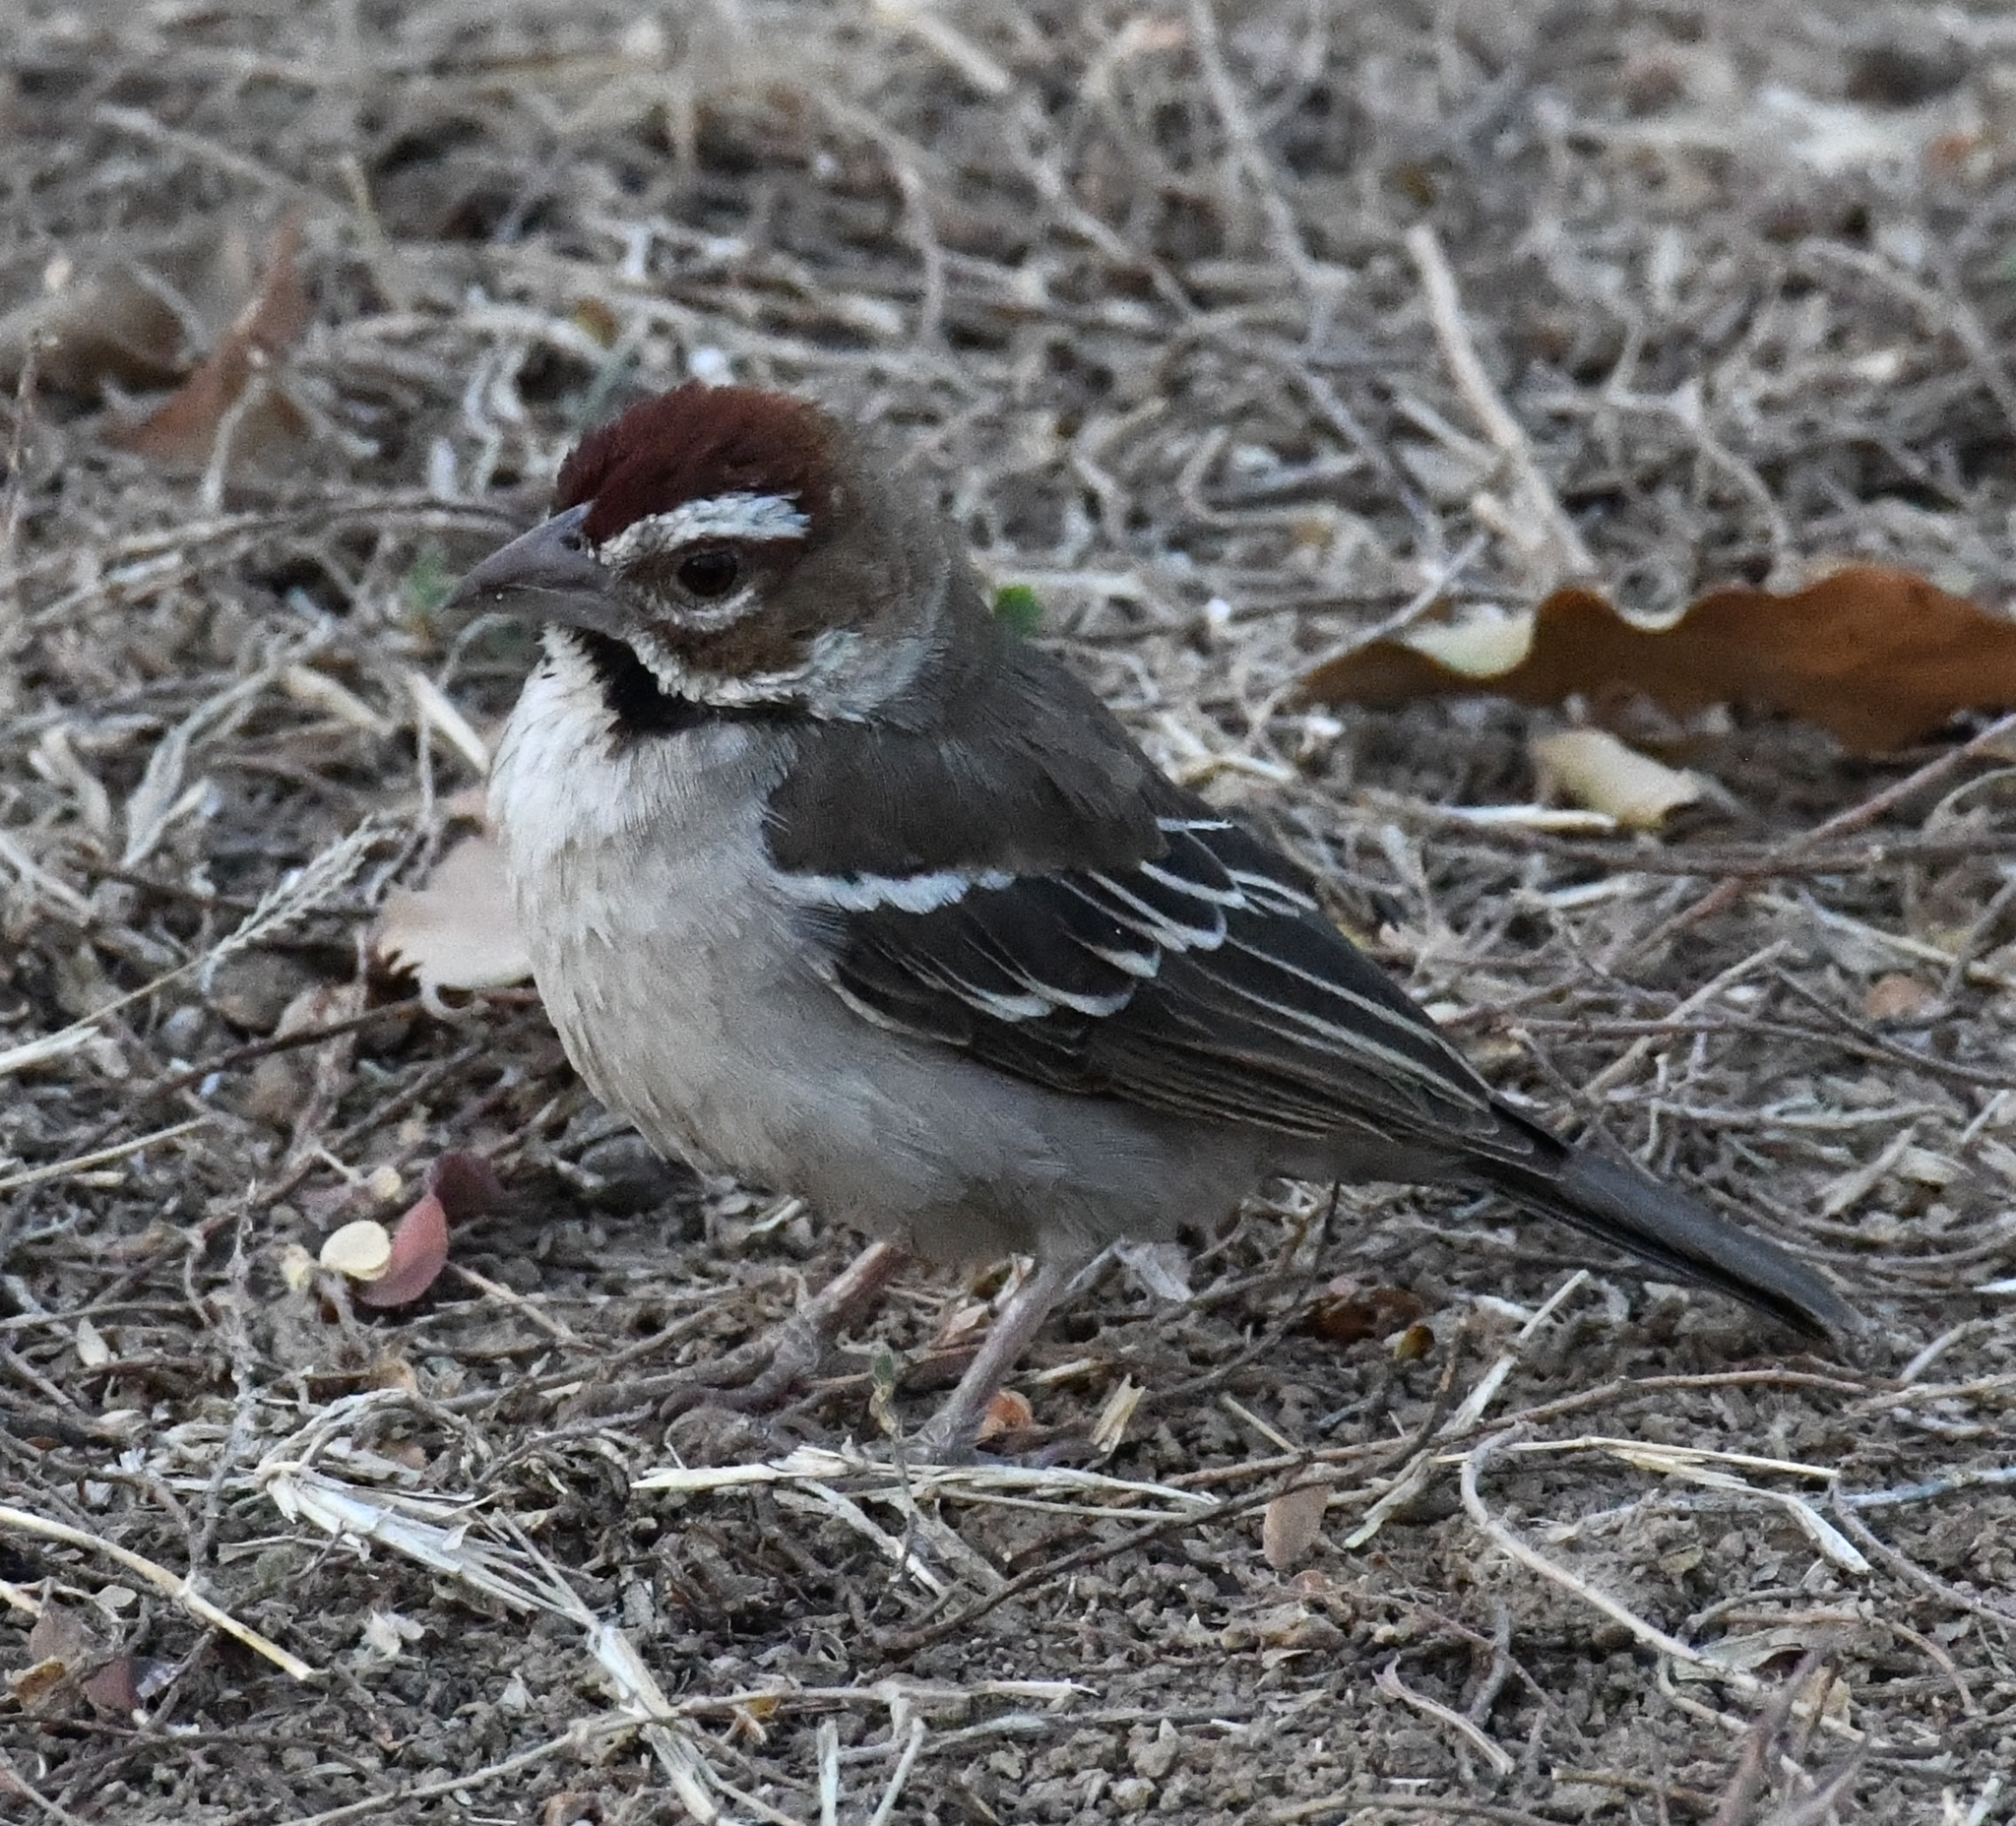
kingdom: Animalia
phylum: Chordata
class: Aves
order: Passeriformes
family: Passeridae
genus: Plocepasser
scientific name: Plocepasser superciliosus
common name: Chestnut-crowned sparrow-weaver
